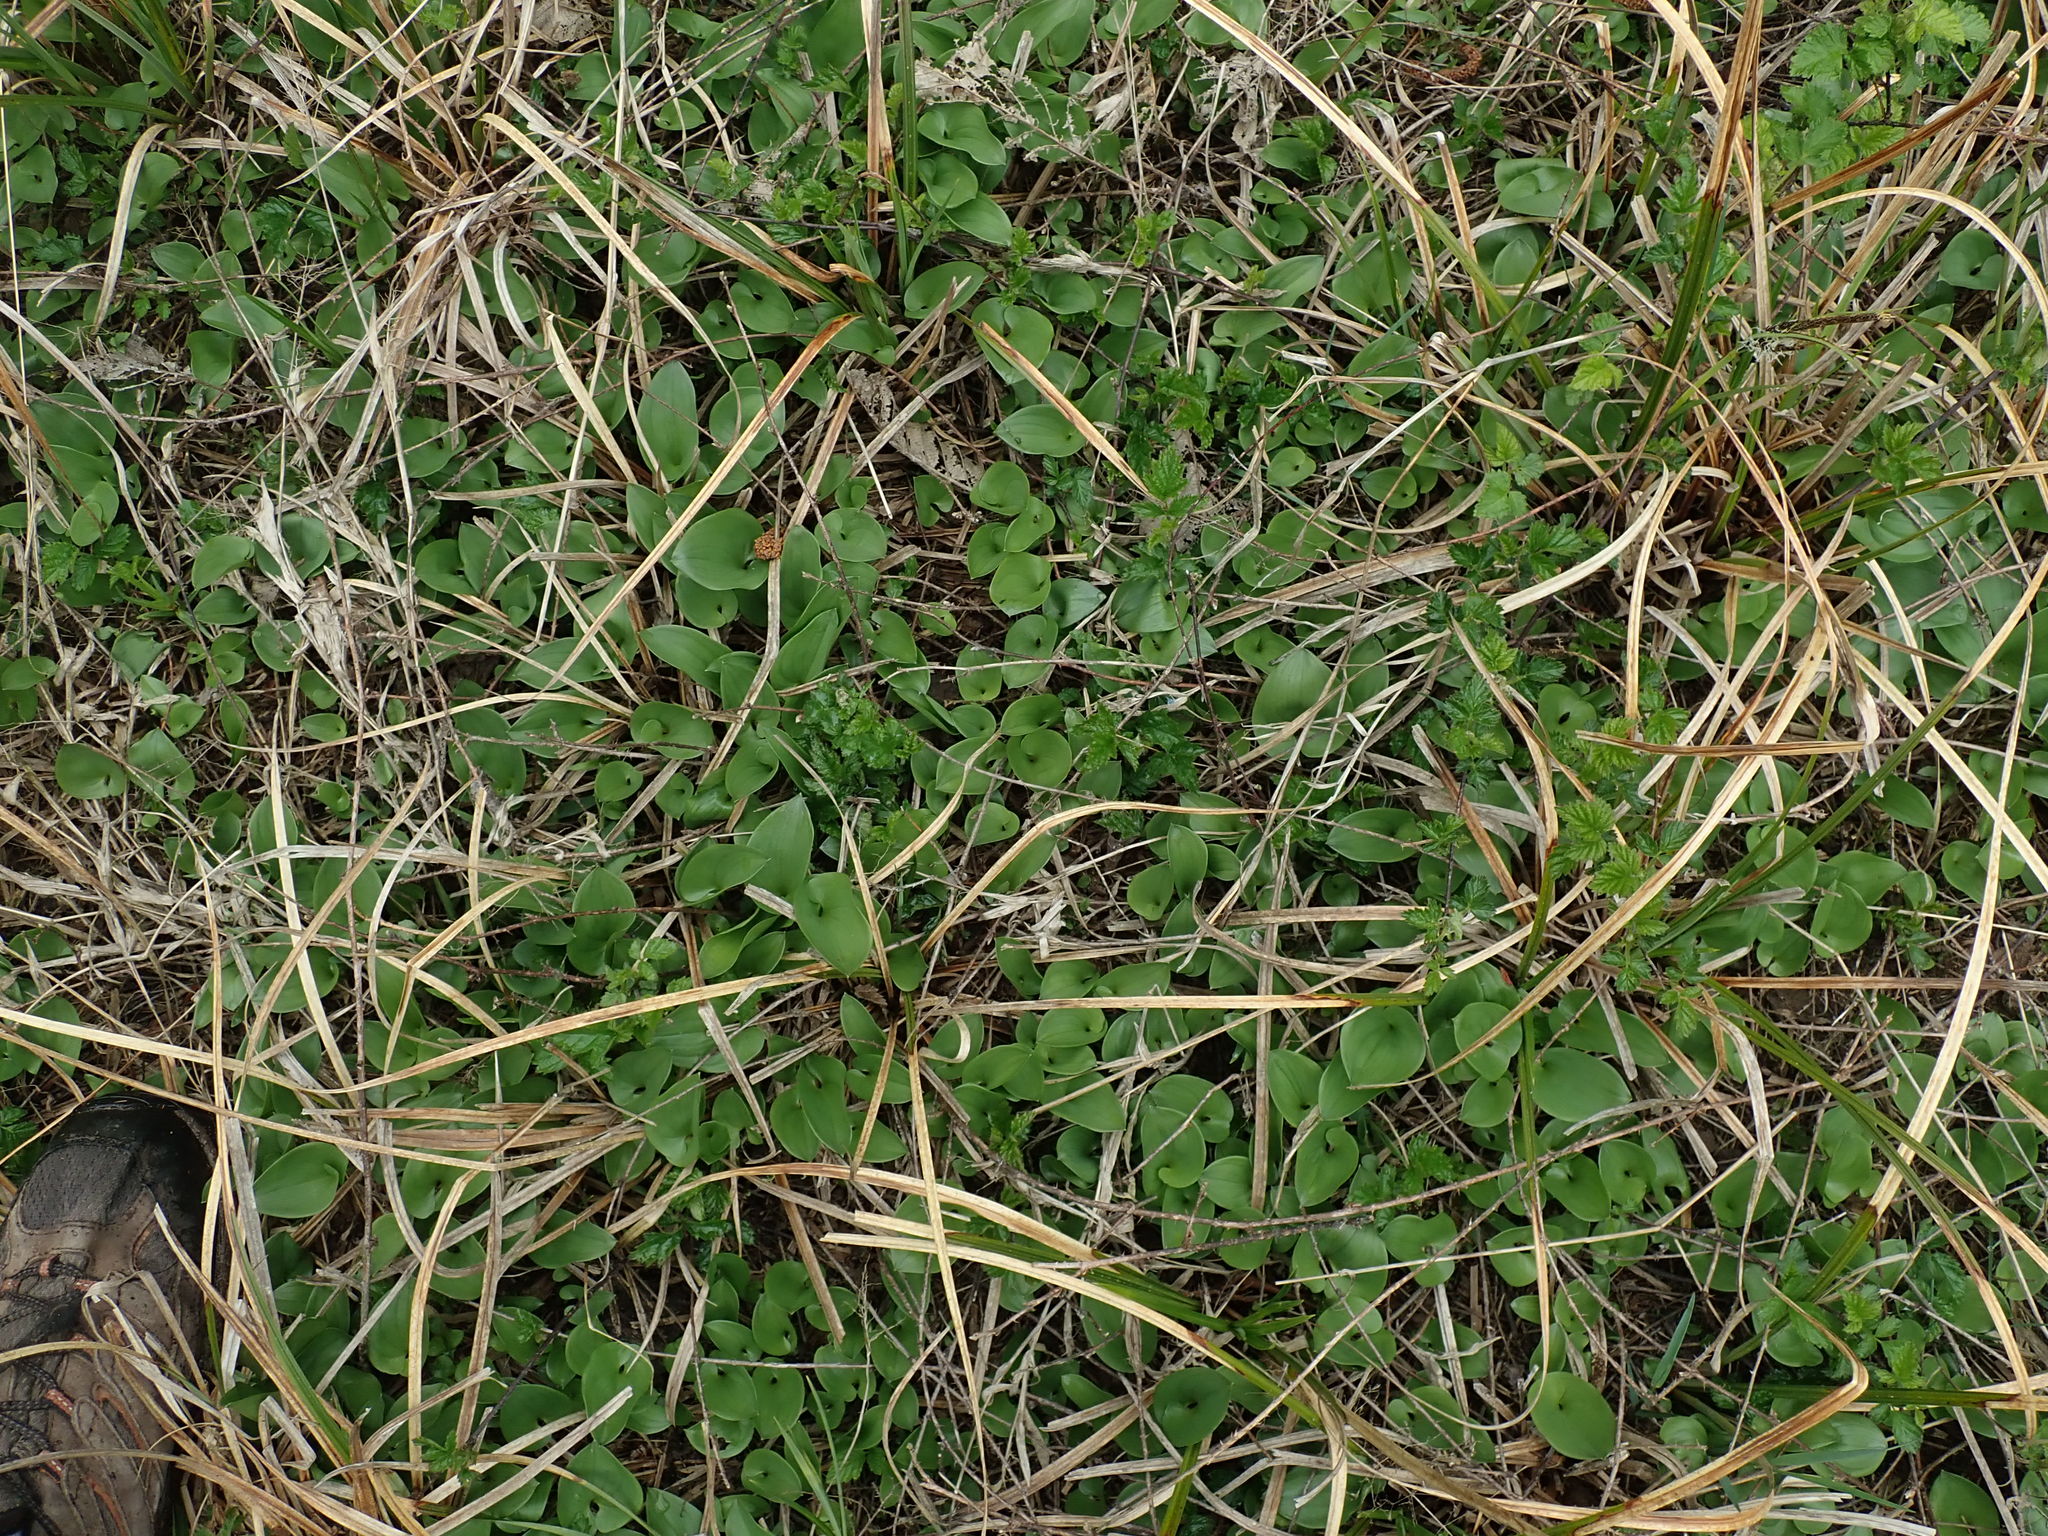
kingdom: Plantae
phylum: Tracheophyta
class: Liliopsida
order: Asparagales
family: Asparagaceae
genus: Maianthemum
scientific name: Maianthemum dilatatum
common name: False lily-of-the-valley
